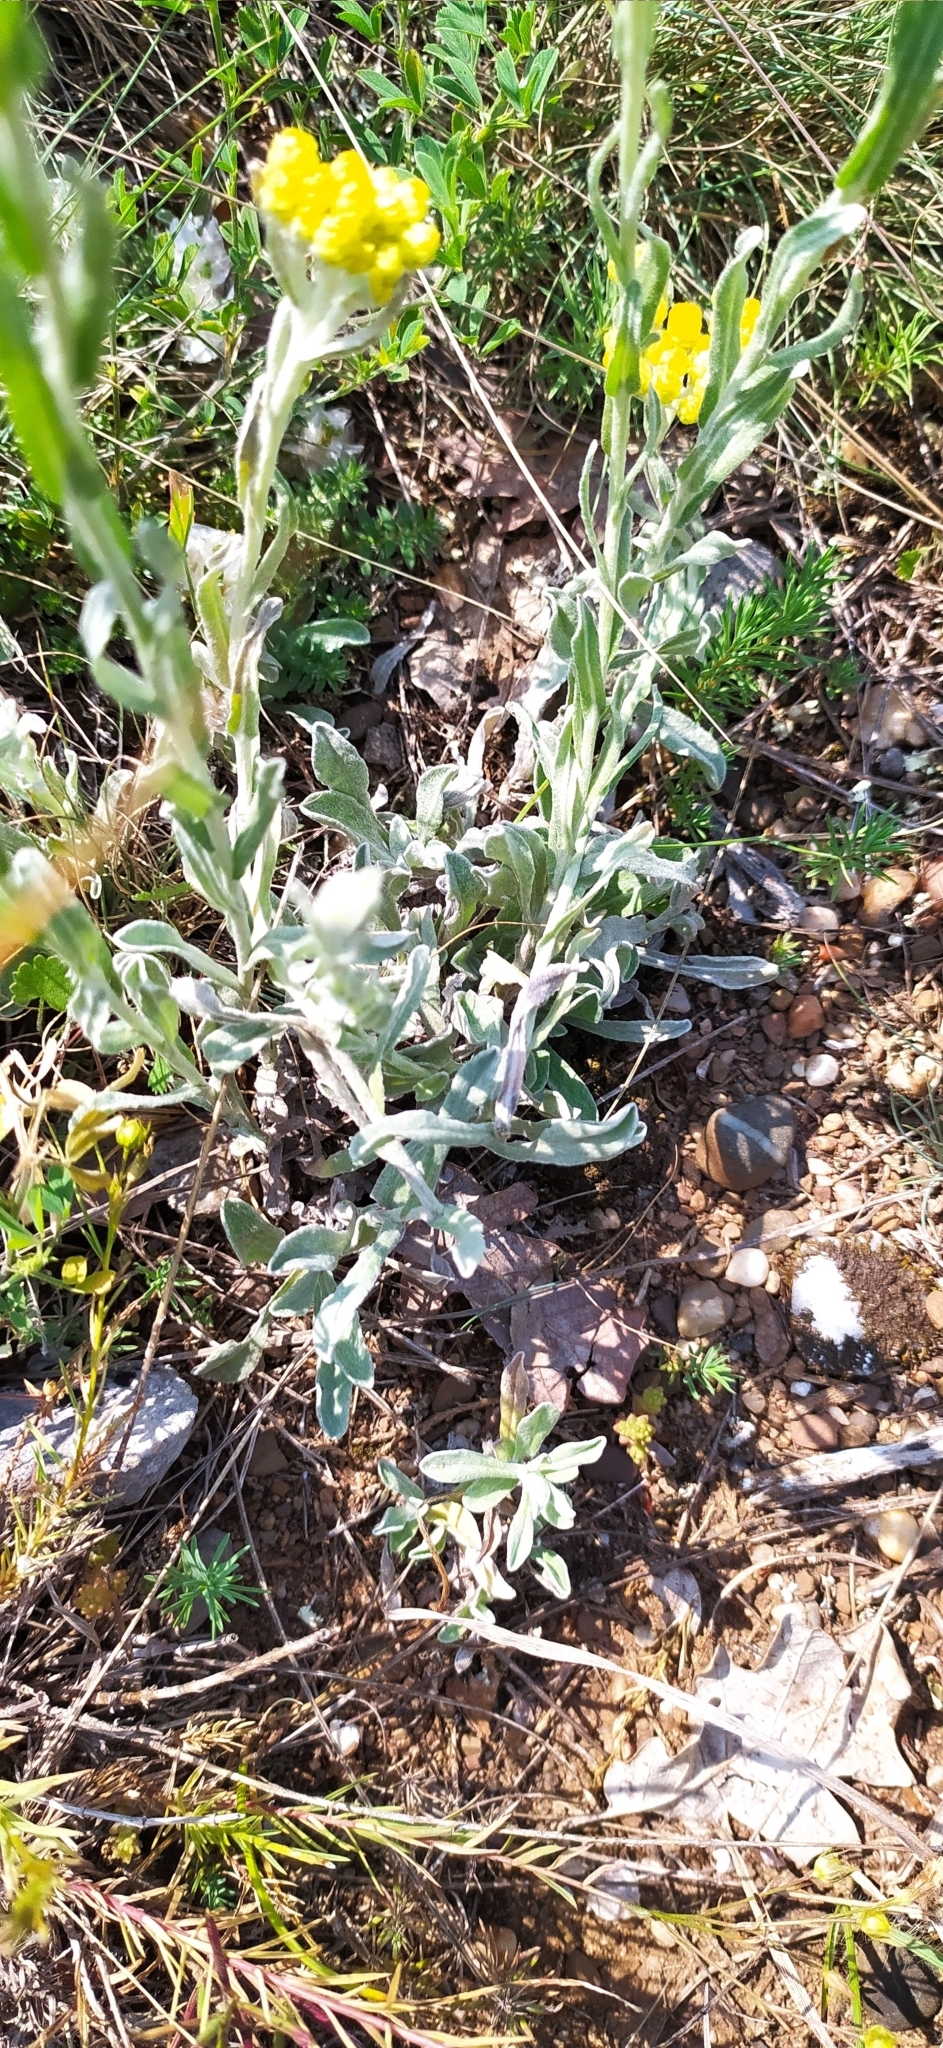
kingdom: Plantae
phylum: Tracheophyta
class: Magnoliopsida
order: Asterales
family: Asteraceae
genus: Helichrysum
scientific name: Helichrysum arenarium
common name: Strawflower
